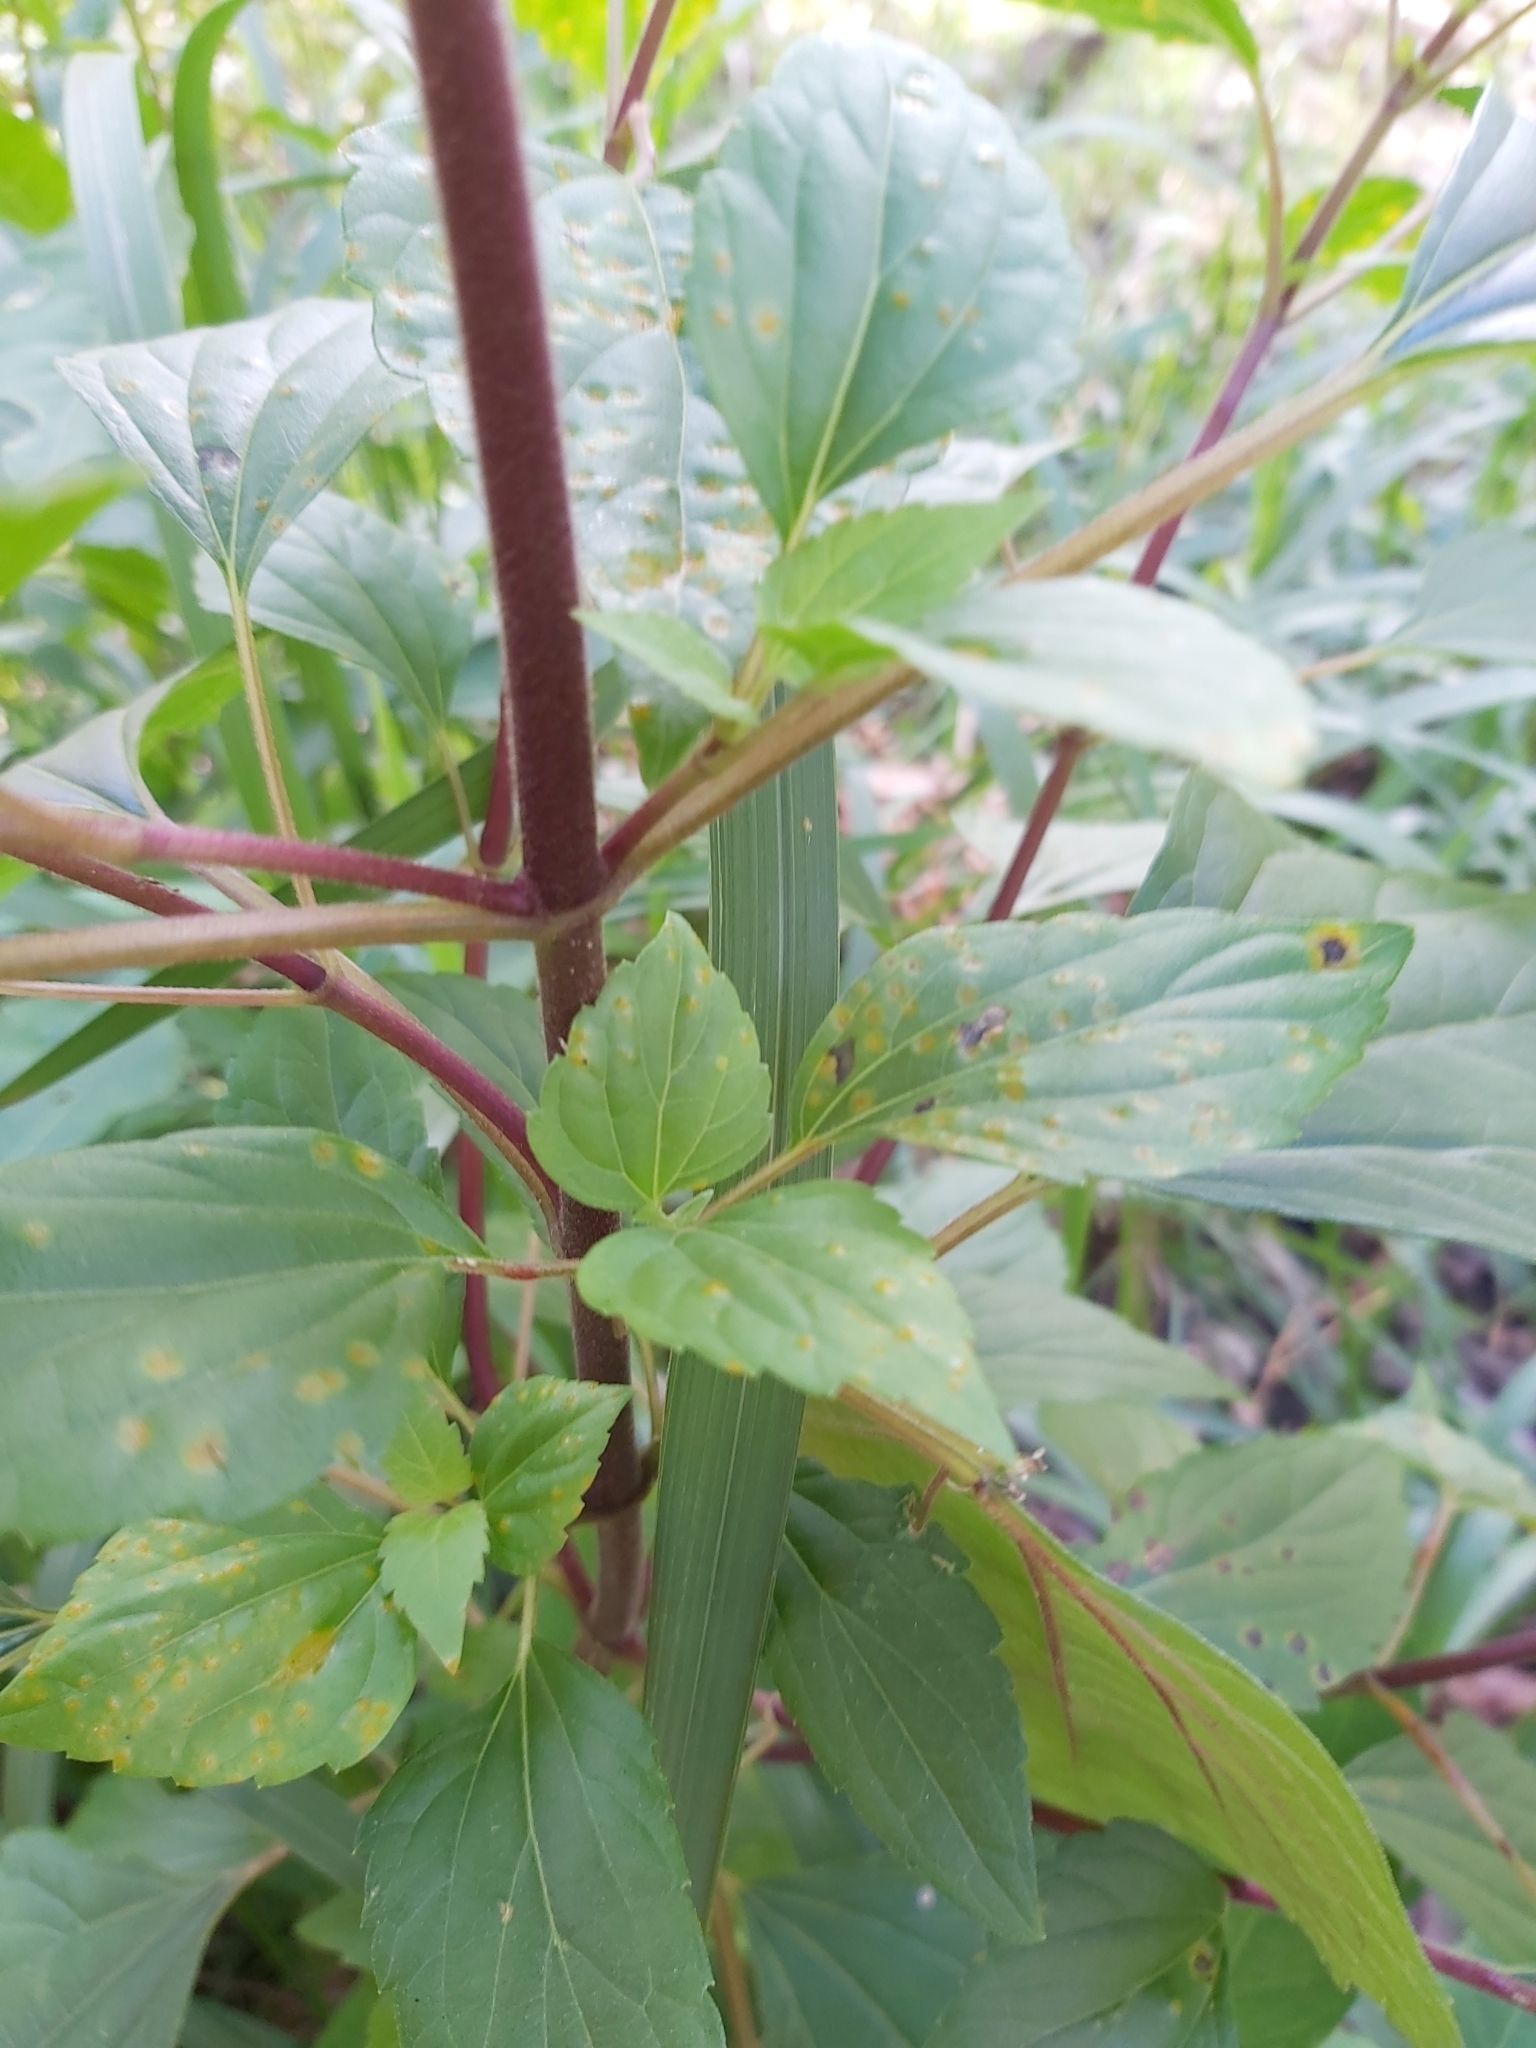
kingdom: Plantae
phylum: Tracheophyta
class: Magnoliopsida
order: Asterales
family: Asteraceae
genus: Ageratina
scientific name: Ageratina adenophora
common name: Sticky snakeroot
